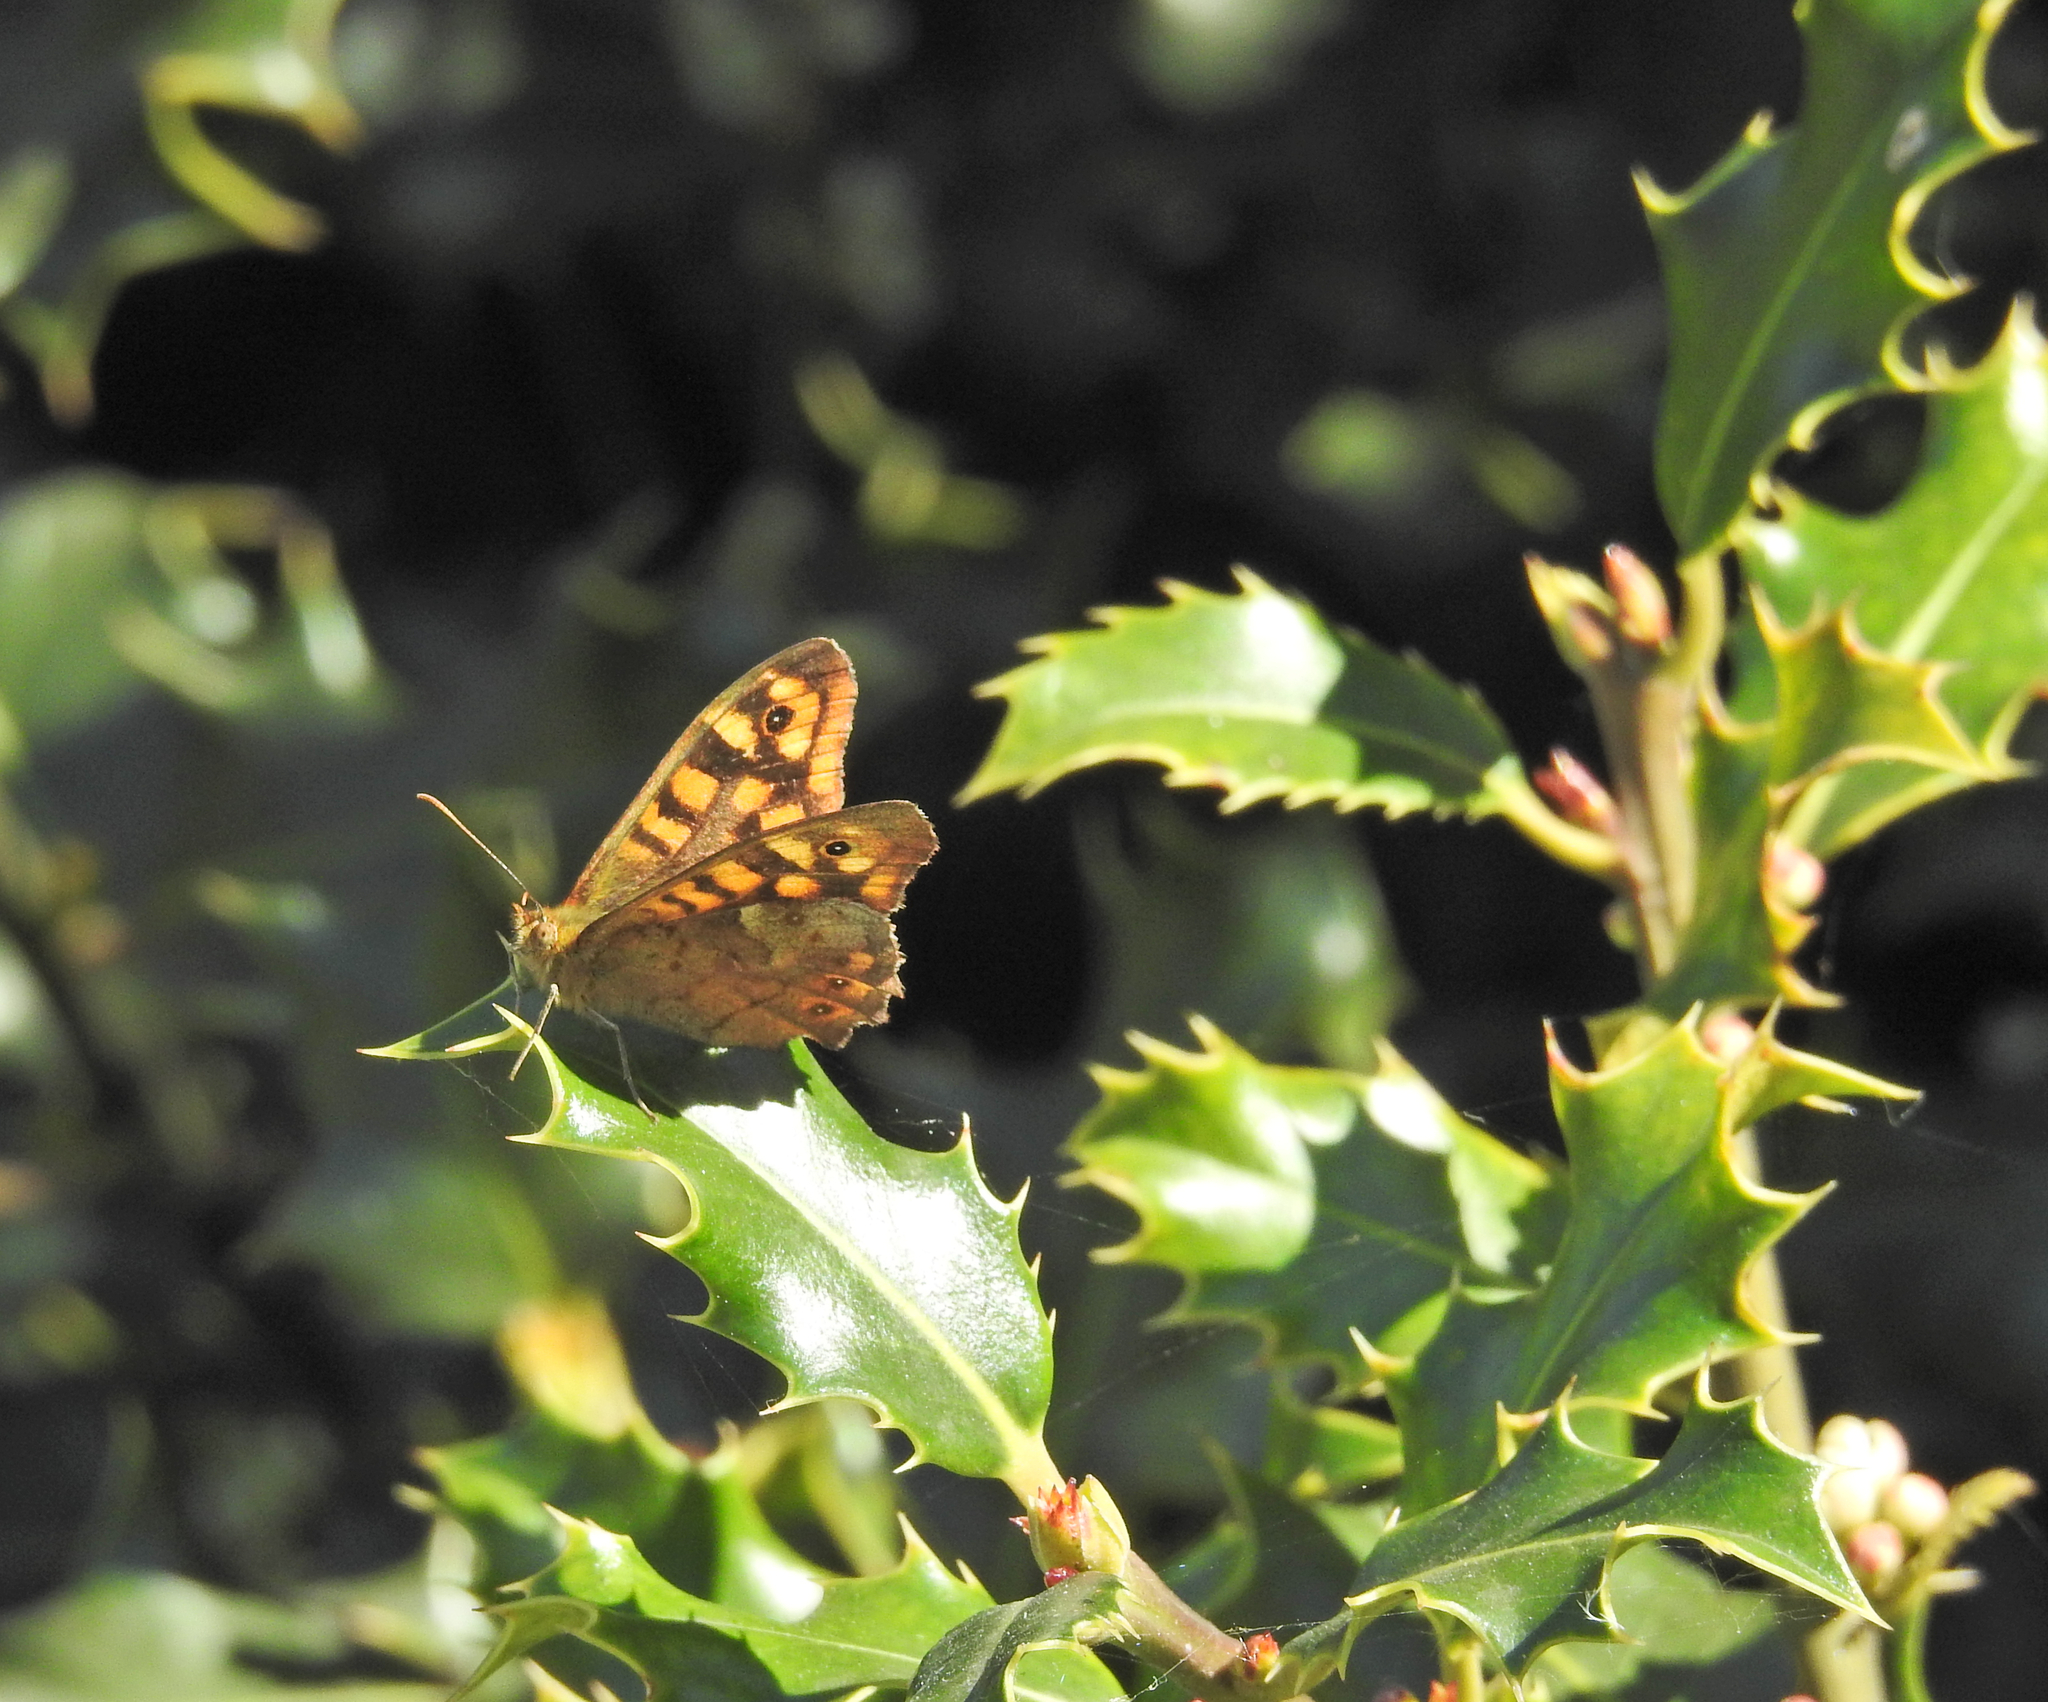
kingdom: Animalia
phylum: Arthropoda
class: Insecta
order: Lepidoptera
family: Nymphalidae
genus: Pararge
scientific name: Pararge aegeria
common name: Speckled wood
